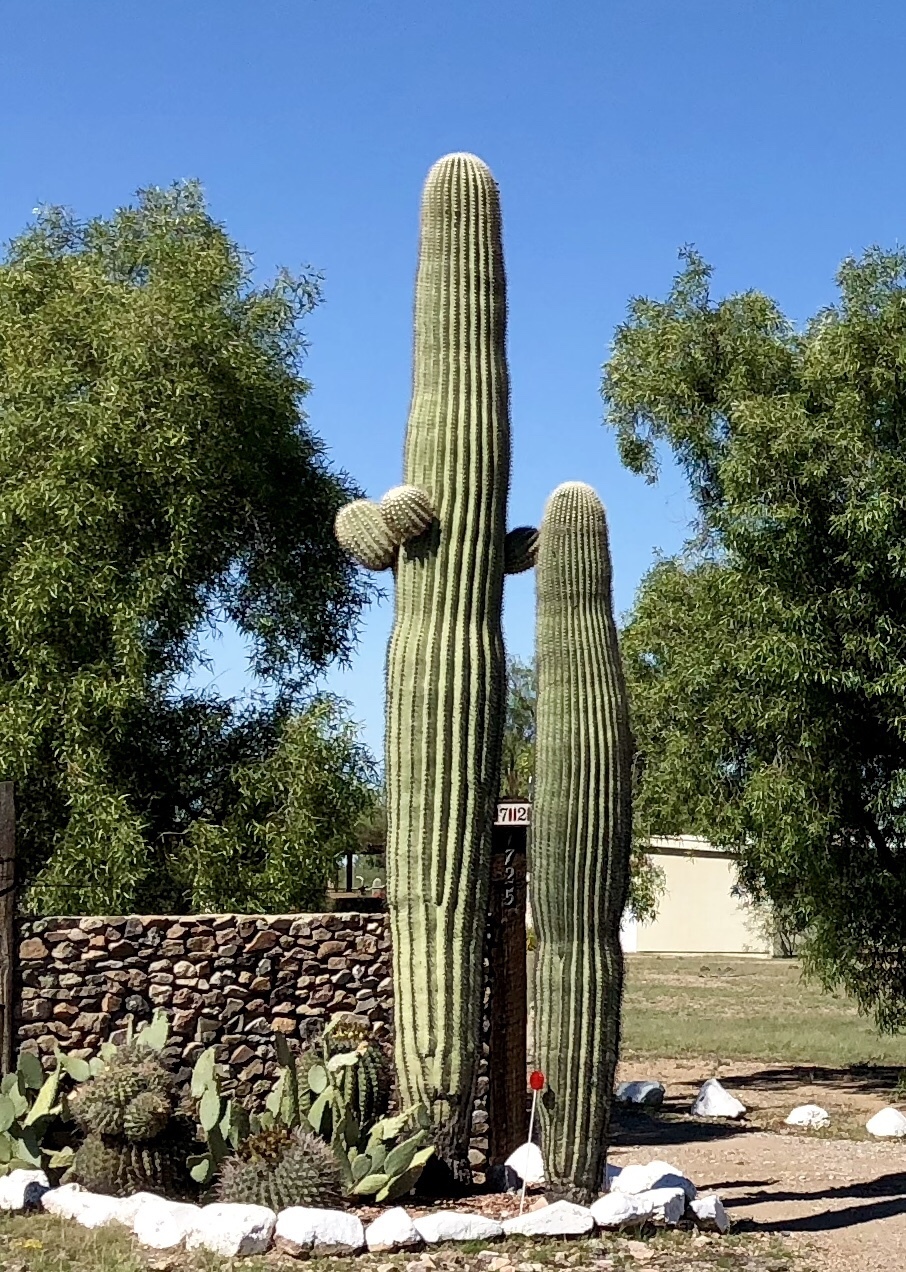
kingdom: Plantae
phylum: Tracheophyta
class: Magnoliopsida
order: Caryophyllales
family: Cactaceae
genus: Carnegiea
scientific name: Carnegiea gigantea
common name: Saguaro
